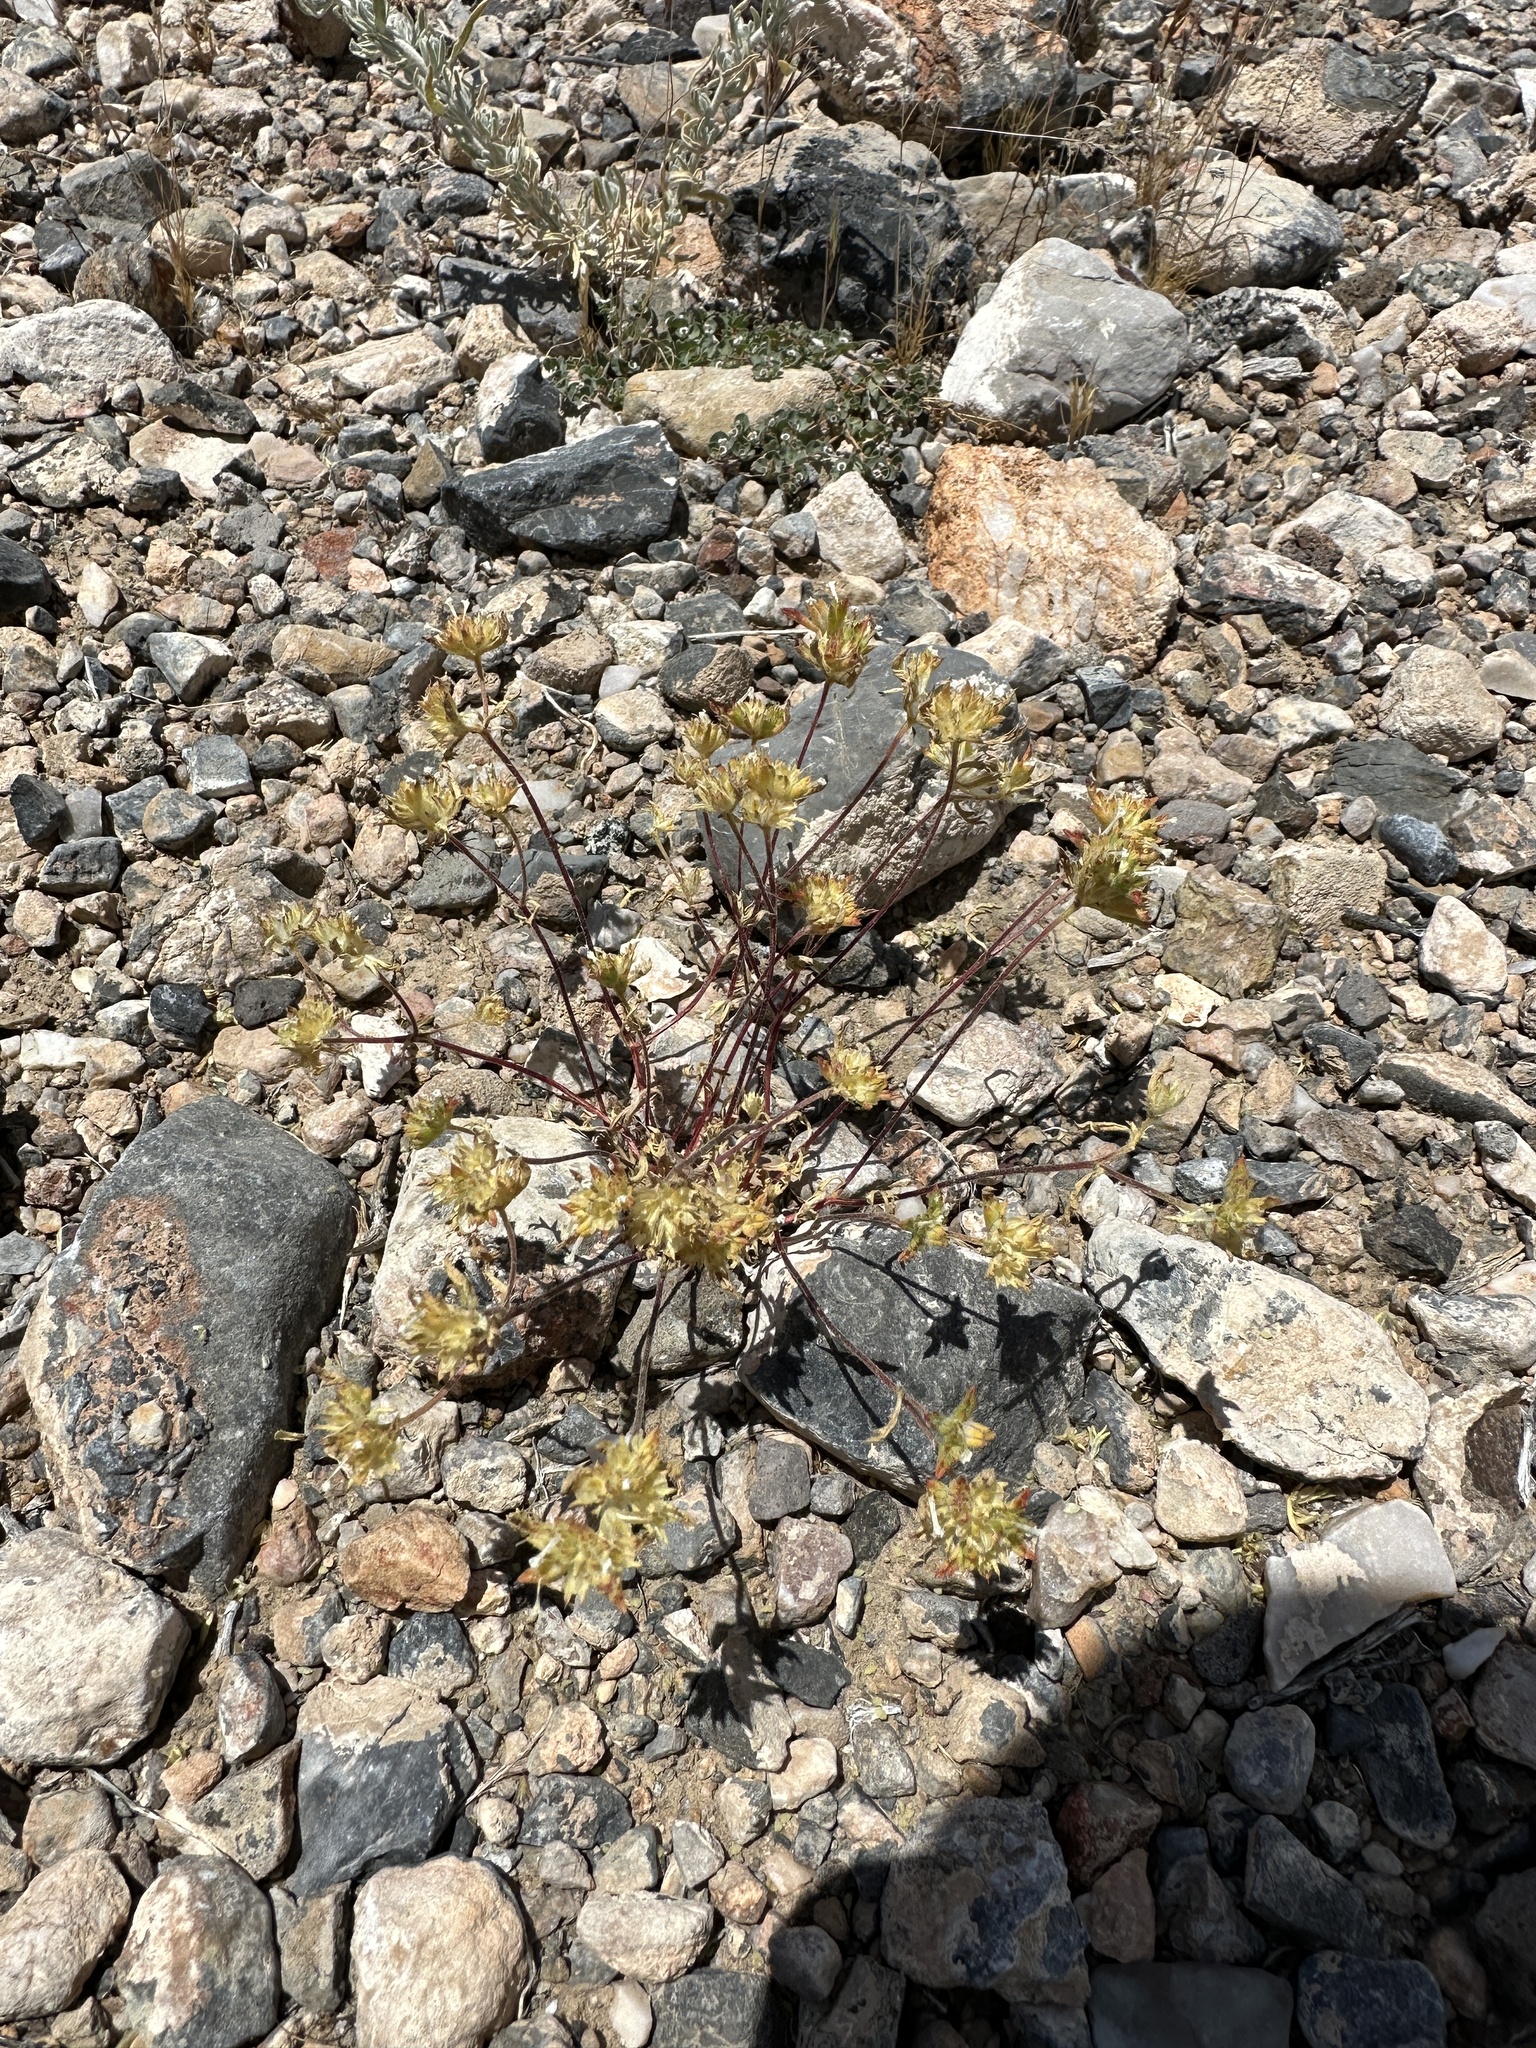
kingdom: Plantae
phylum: Tracheophyta
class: Magnoliopsida
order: Ericales
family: Polemoniaceae
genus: Ipomopsis
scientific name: Ipomopsis polycladon
